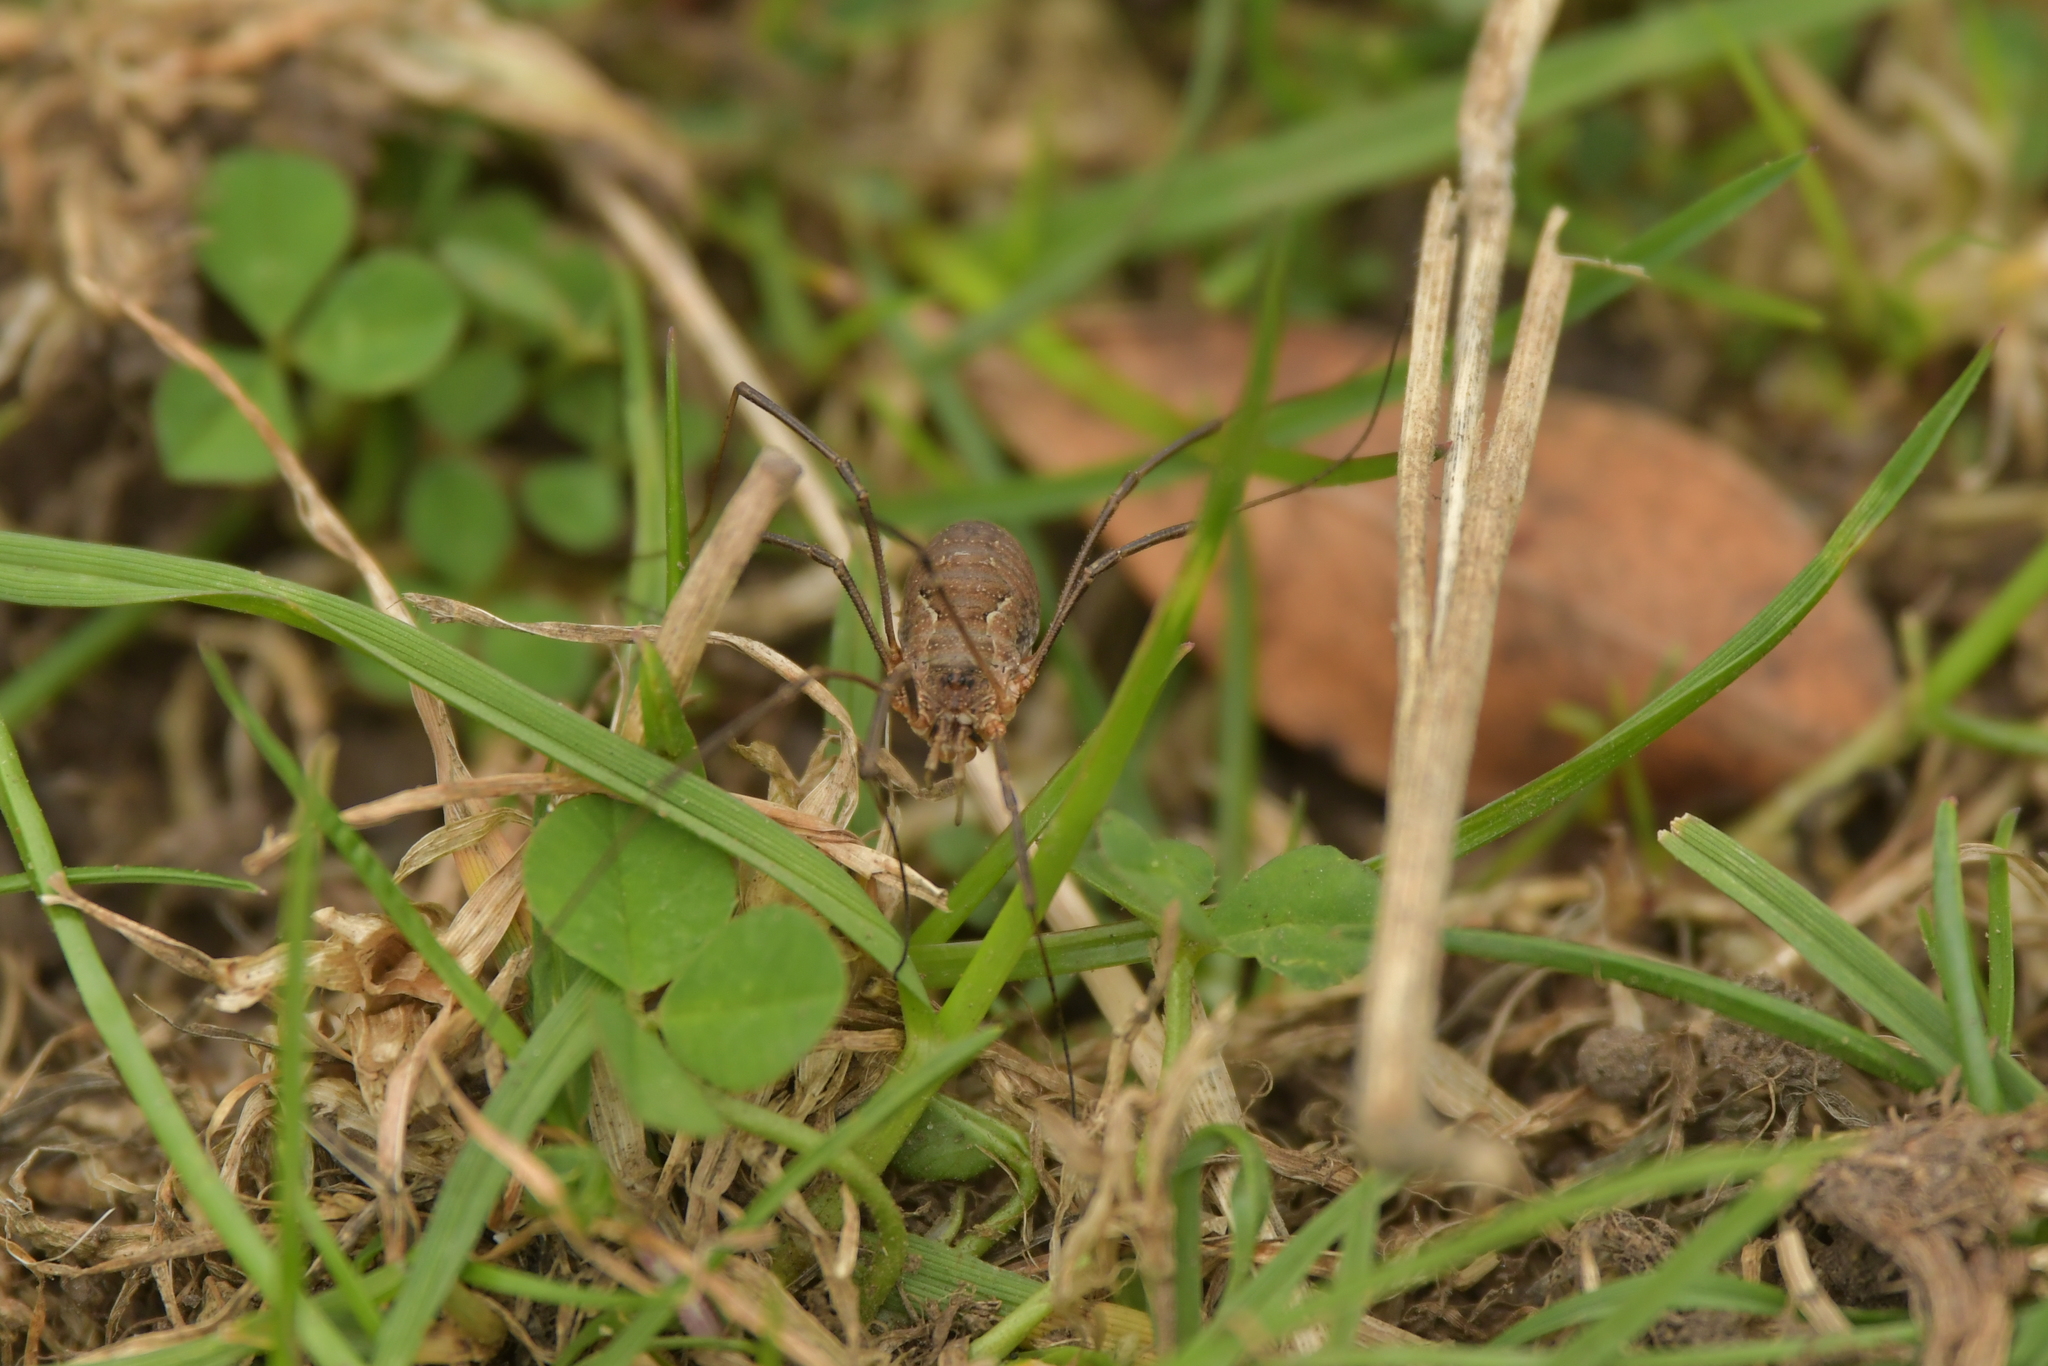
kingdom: Animalia
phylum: Arthropoda
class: Arachnida
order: Opiliones
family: Phalangiidae
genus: Phalangium
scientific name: Phalangium opilio
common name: Daddy longleg
